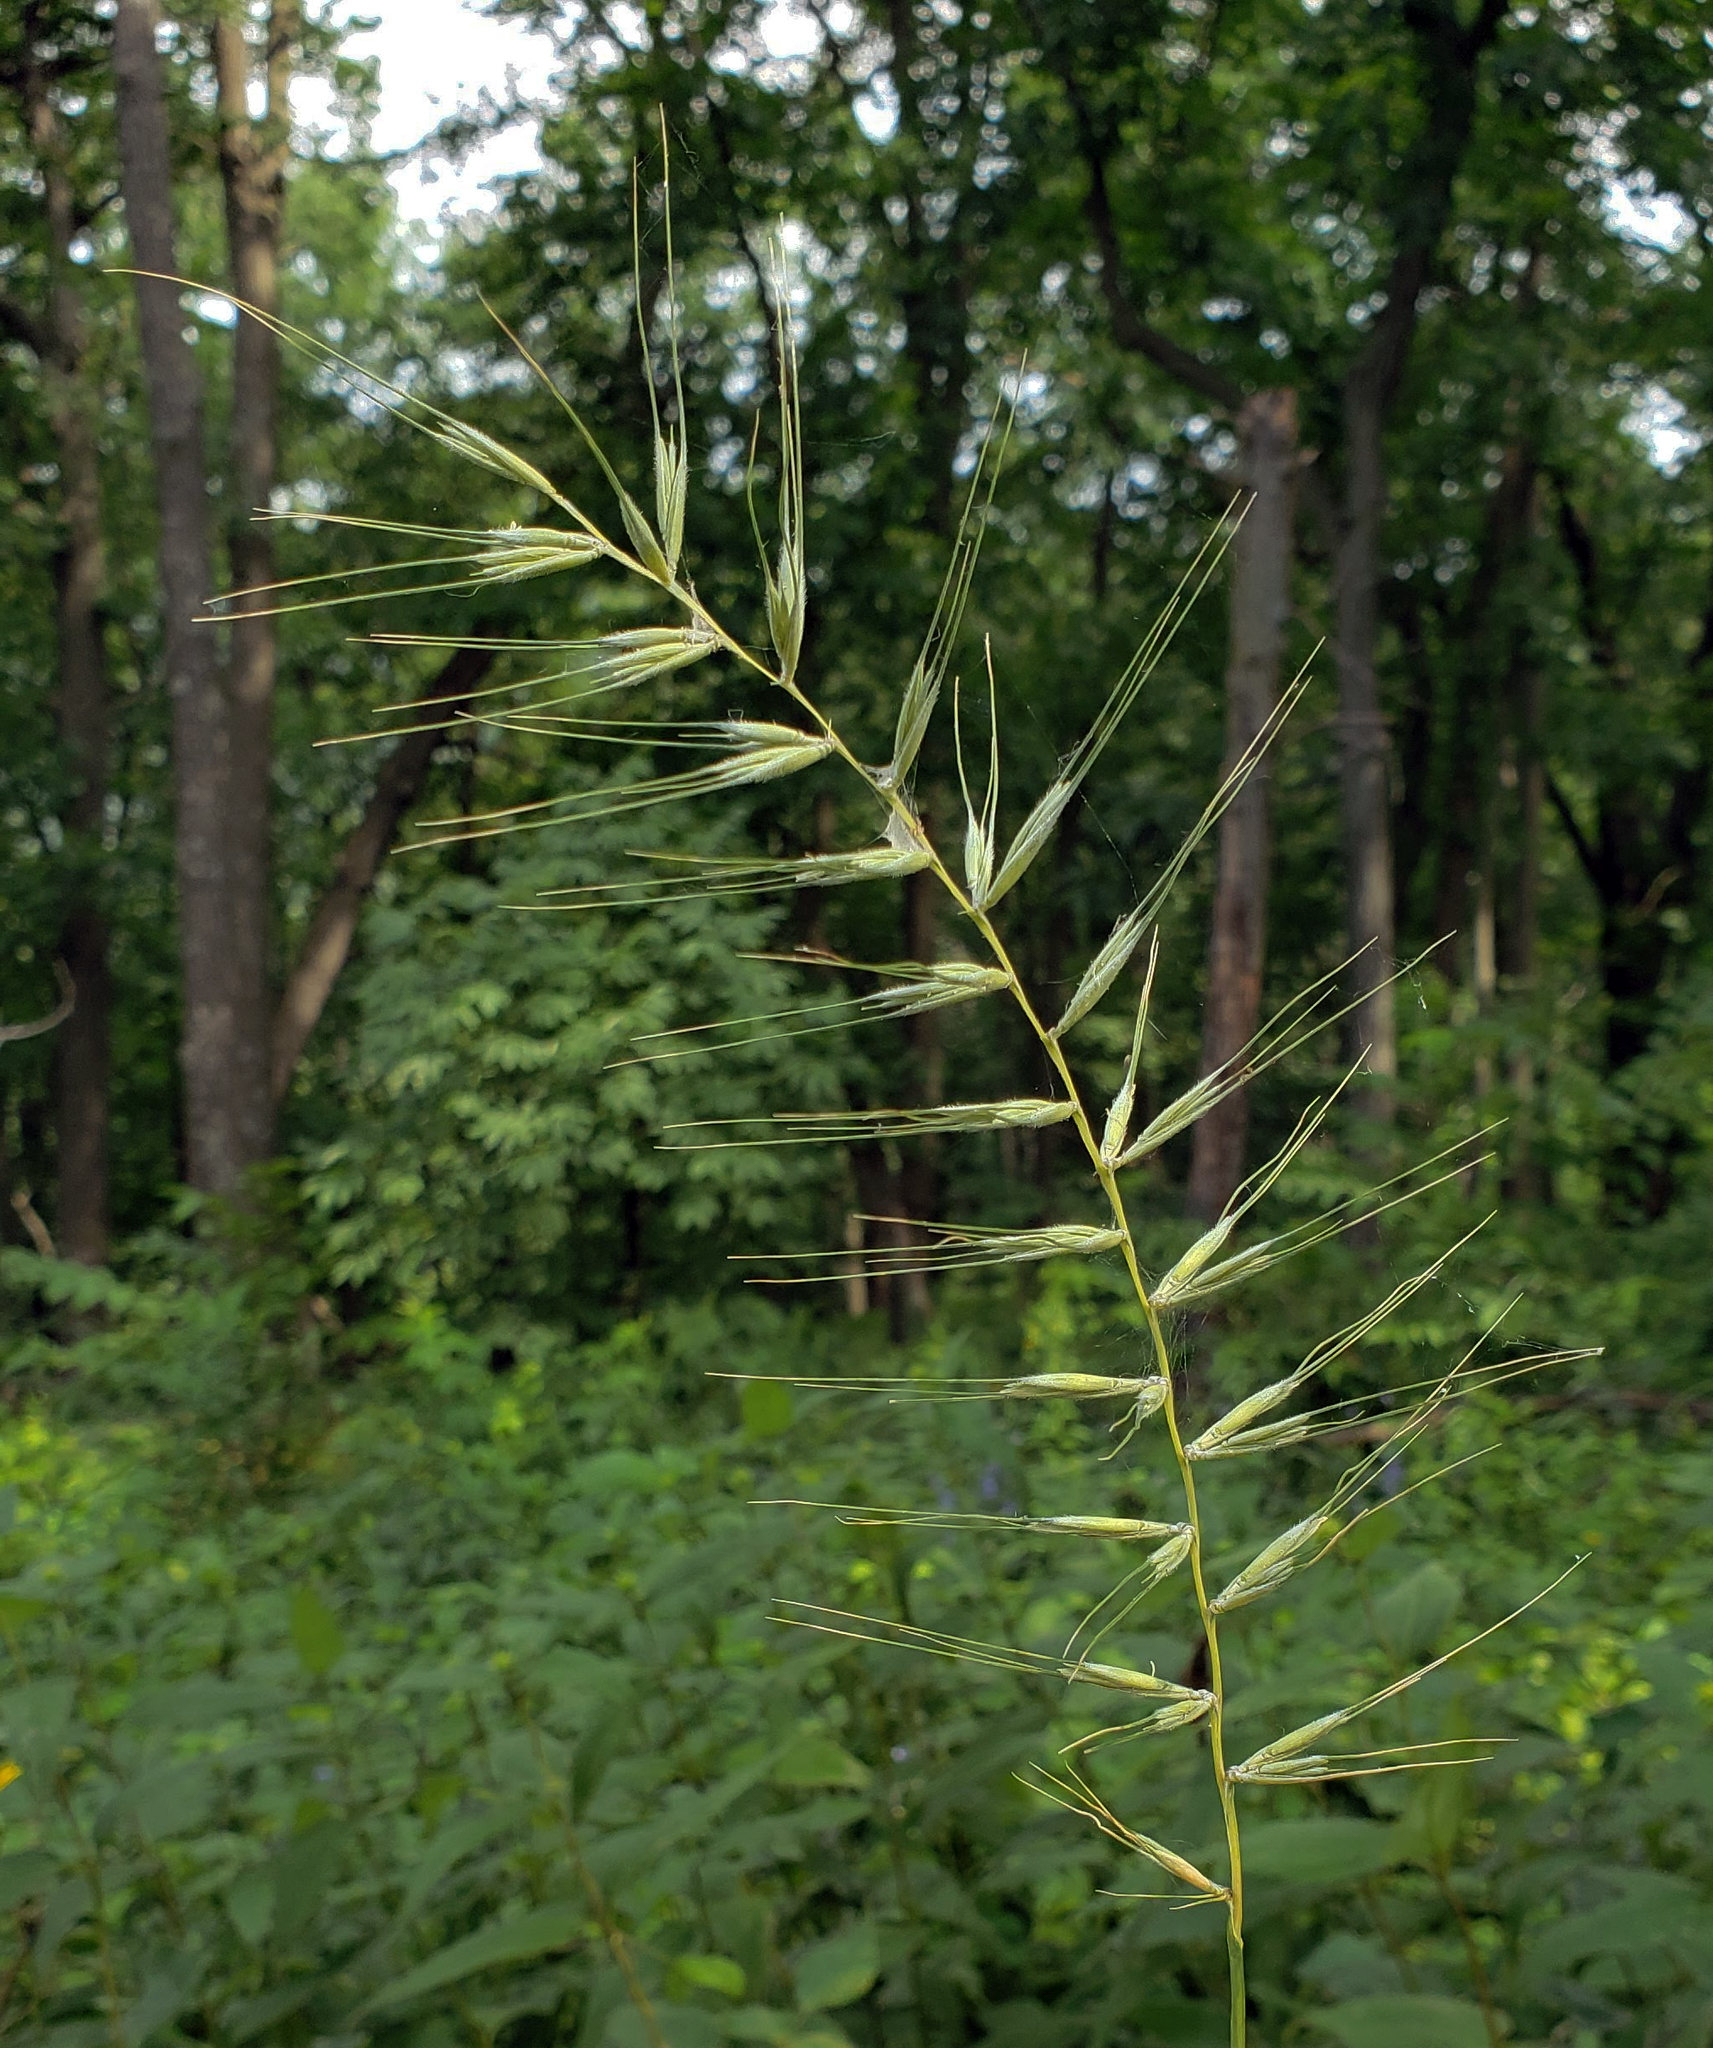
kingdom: Plantae
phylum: Tracheophyta
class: Liliopsida
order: Poales
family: Poaceae
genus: Elymus
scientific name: Elymus hystrix
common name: Bottlebrush grass
